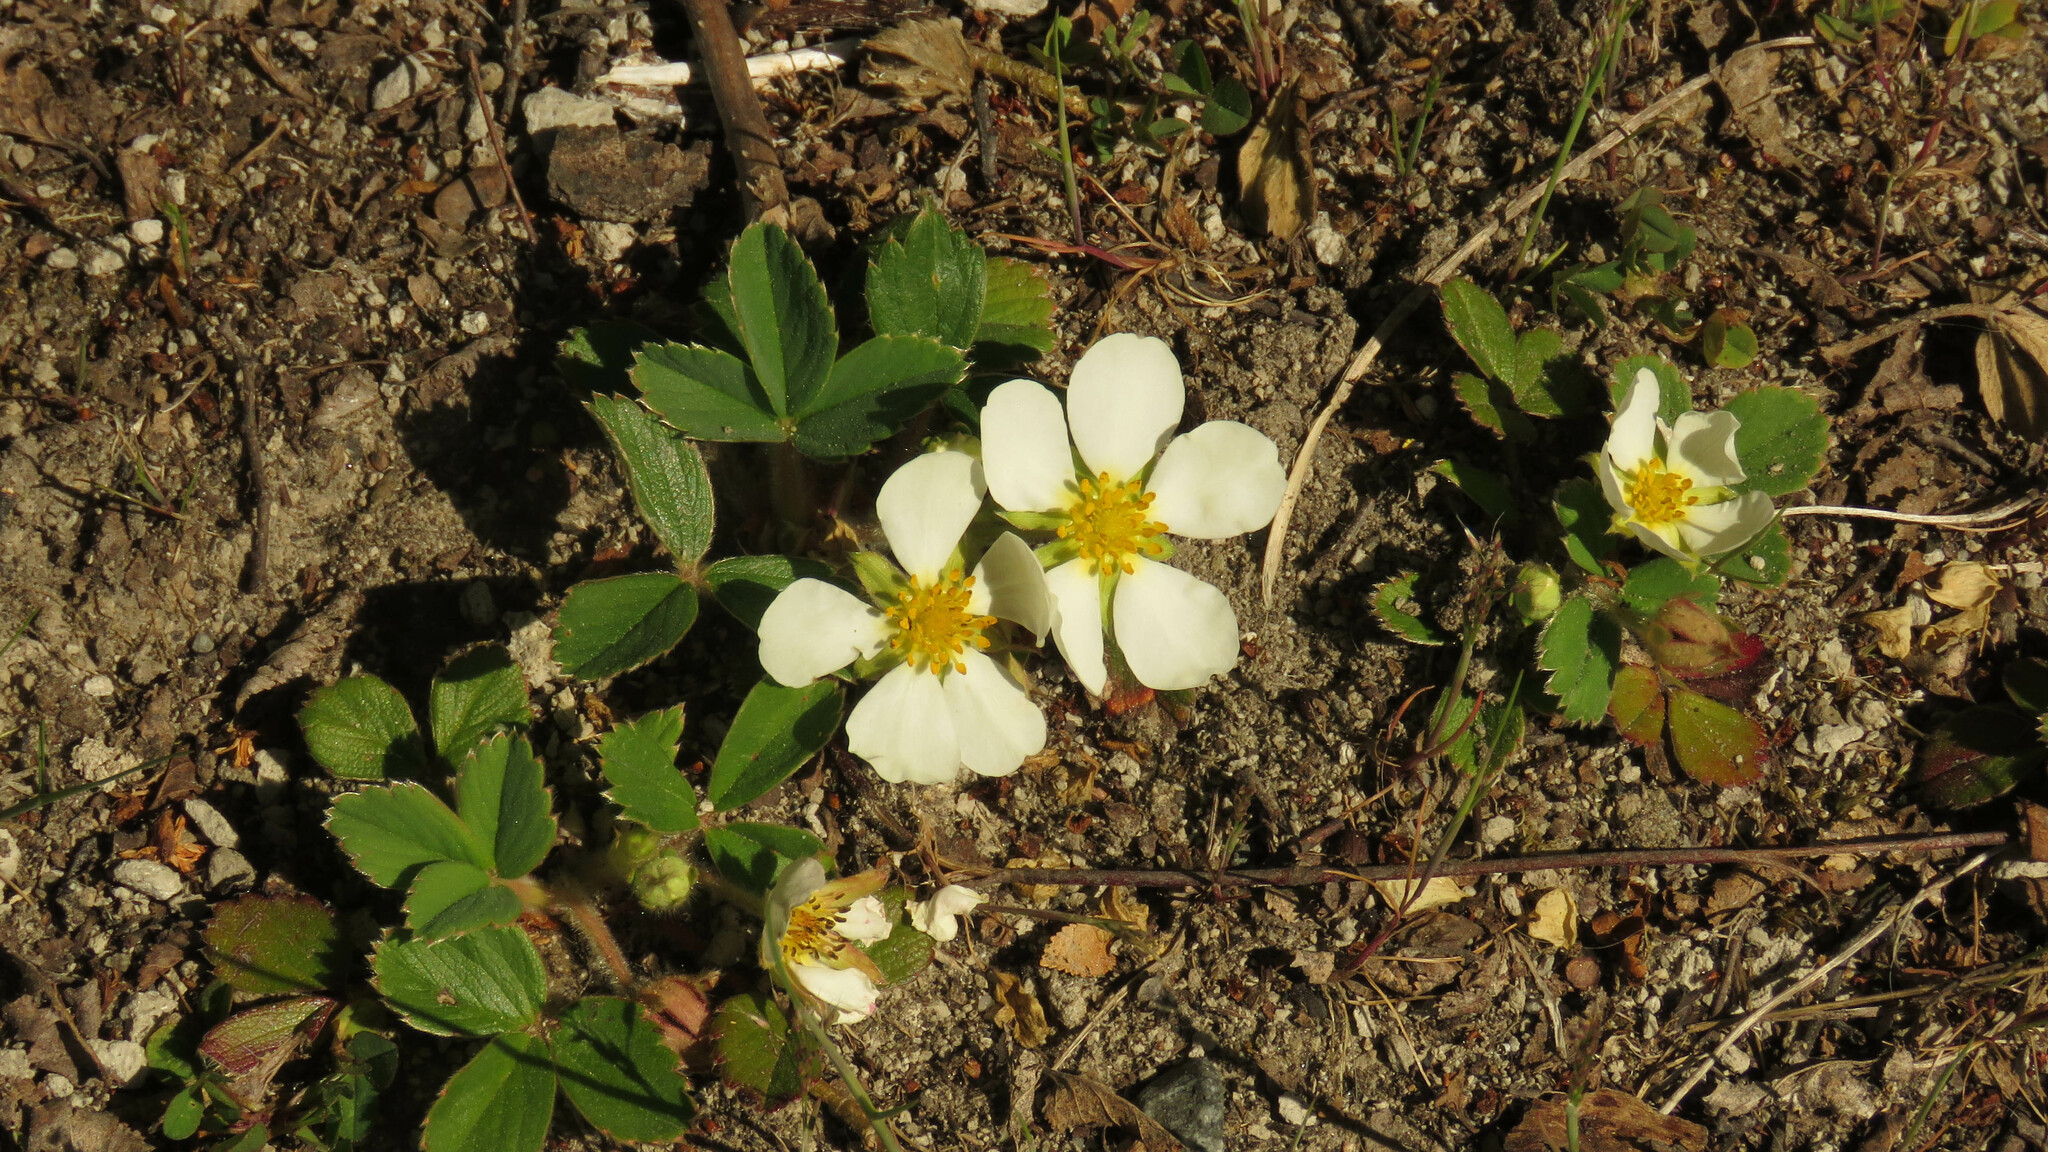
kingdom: Plantae
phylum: Tracheophyta
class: Magnoliopsida
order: Rosales
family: Rosaceae
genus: Fragaria
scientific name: Fragaria chiloensis
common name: Beach strawberry
